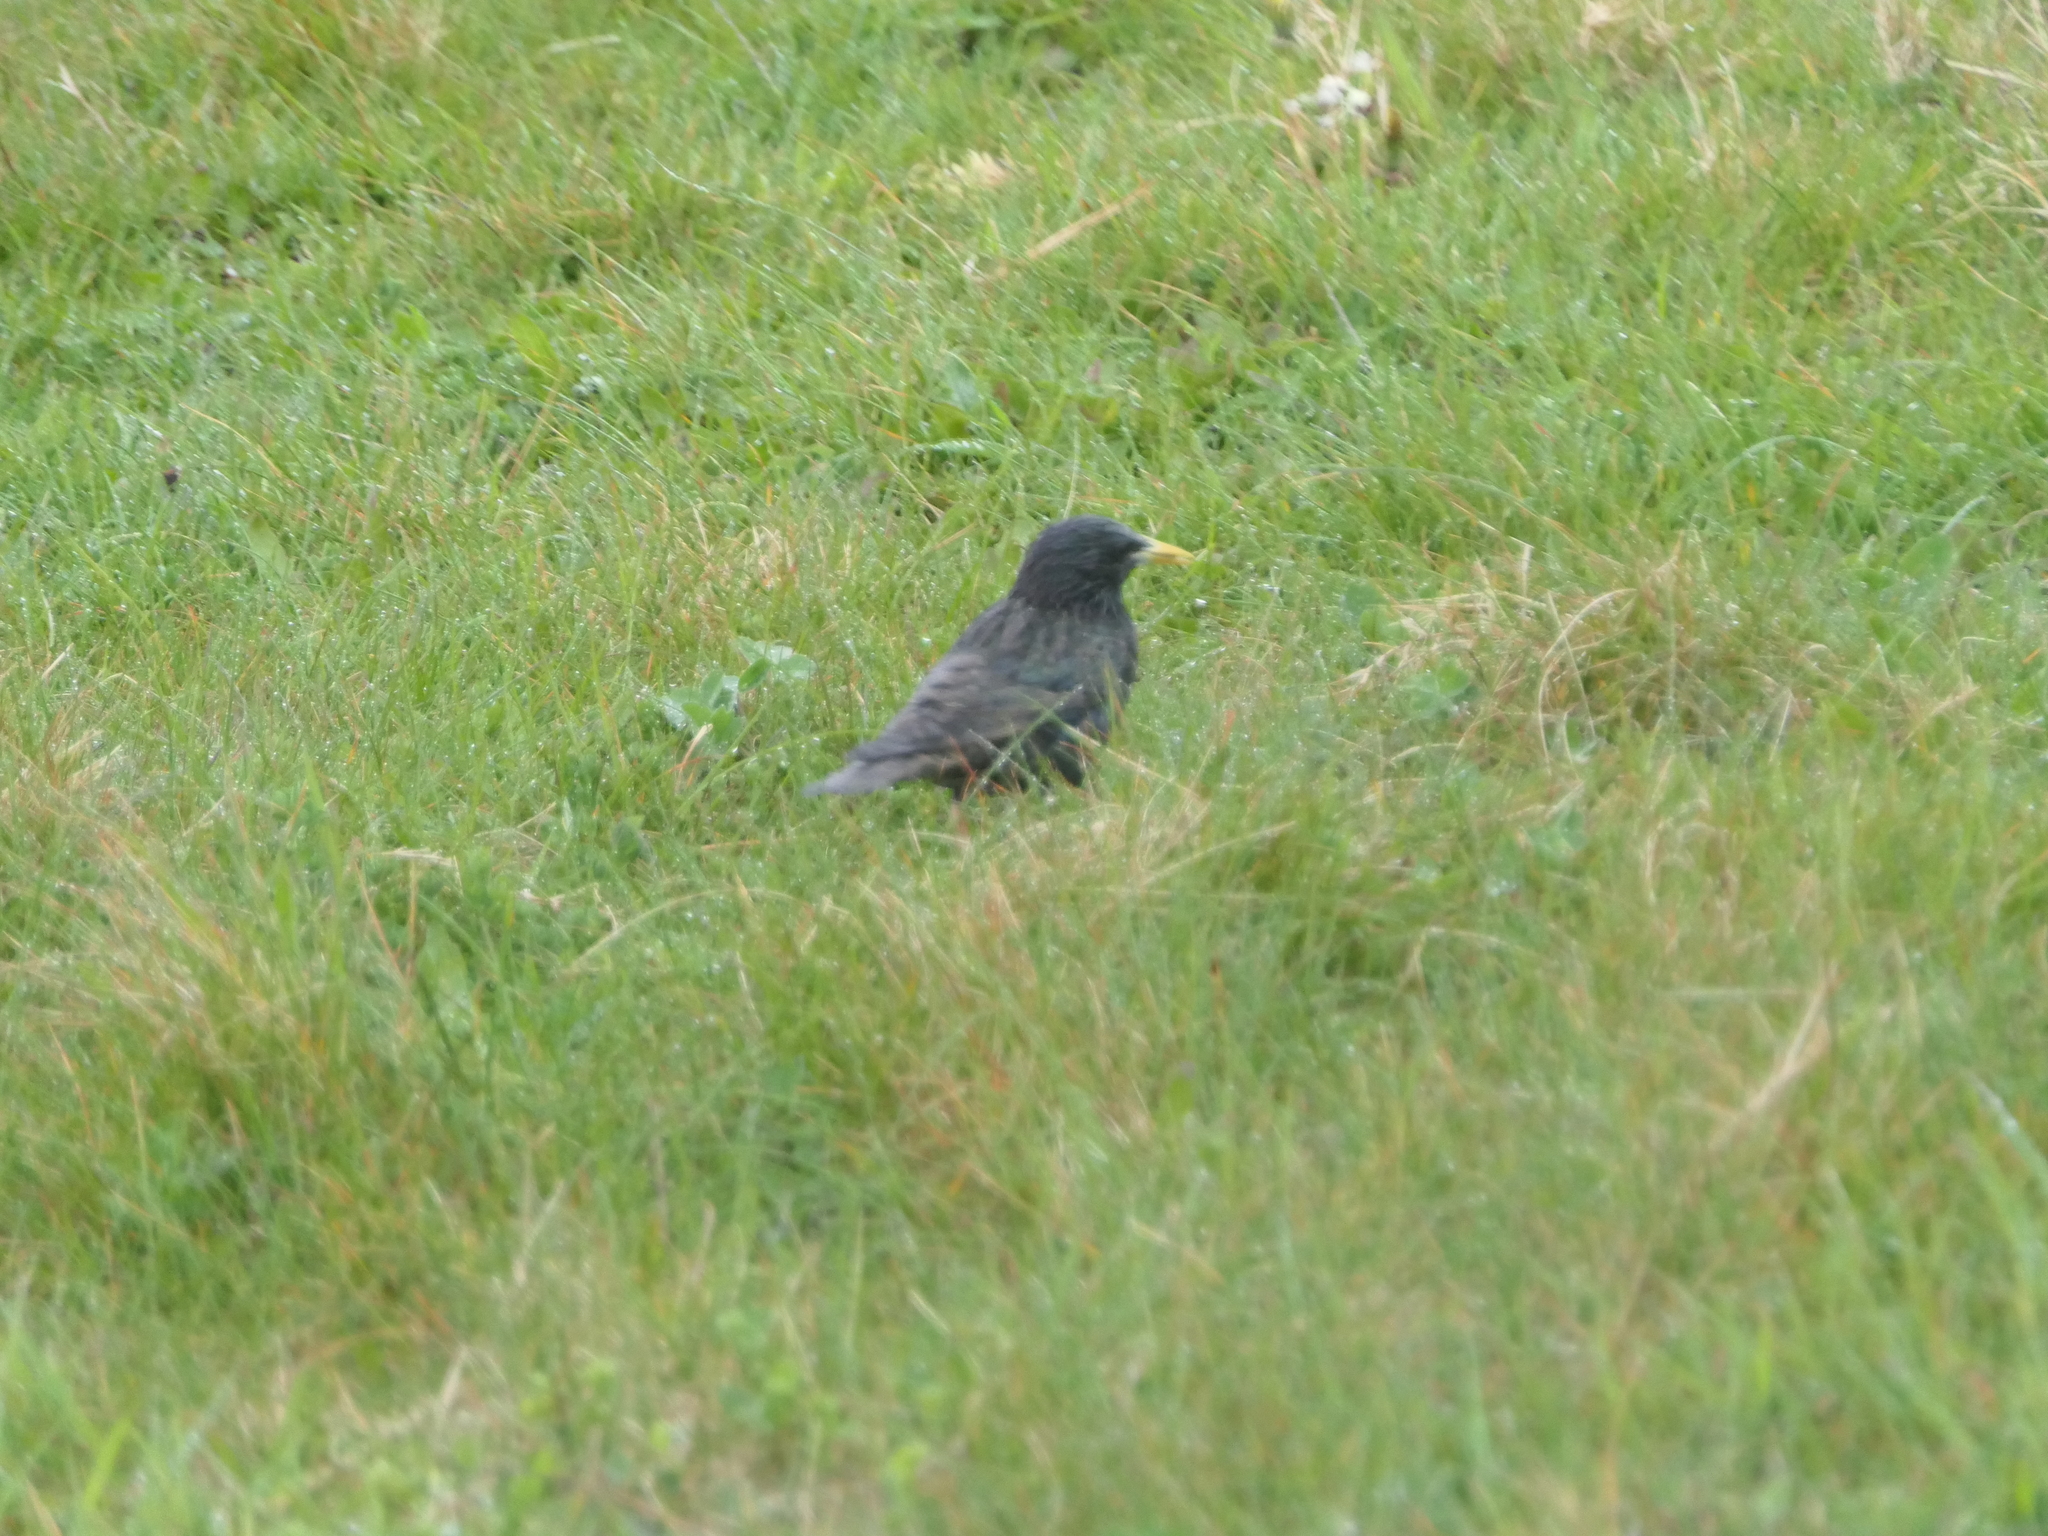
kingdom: Animalia
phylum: Chordata
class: Aves
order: Passeriformes
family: Sturnidae
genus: Sturnus
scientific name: Sturnus vulgaris
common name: Common starling
